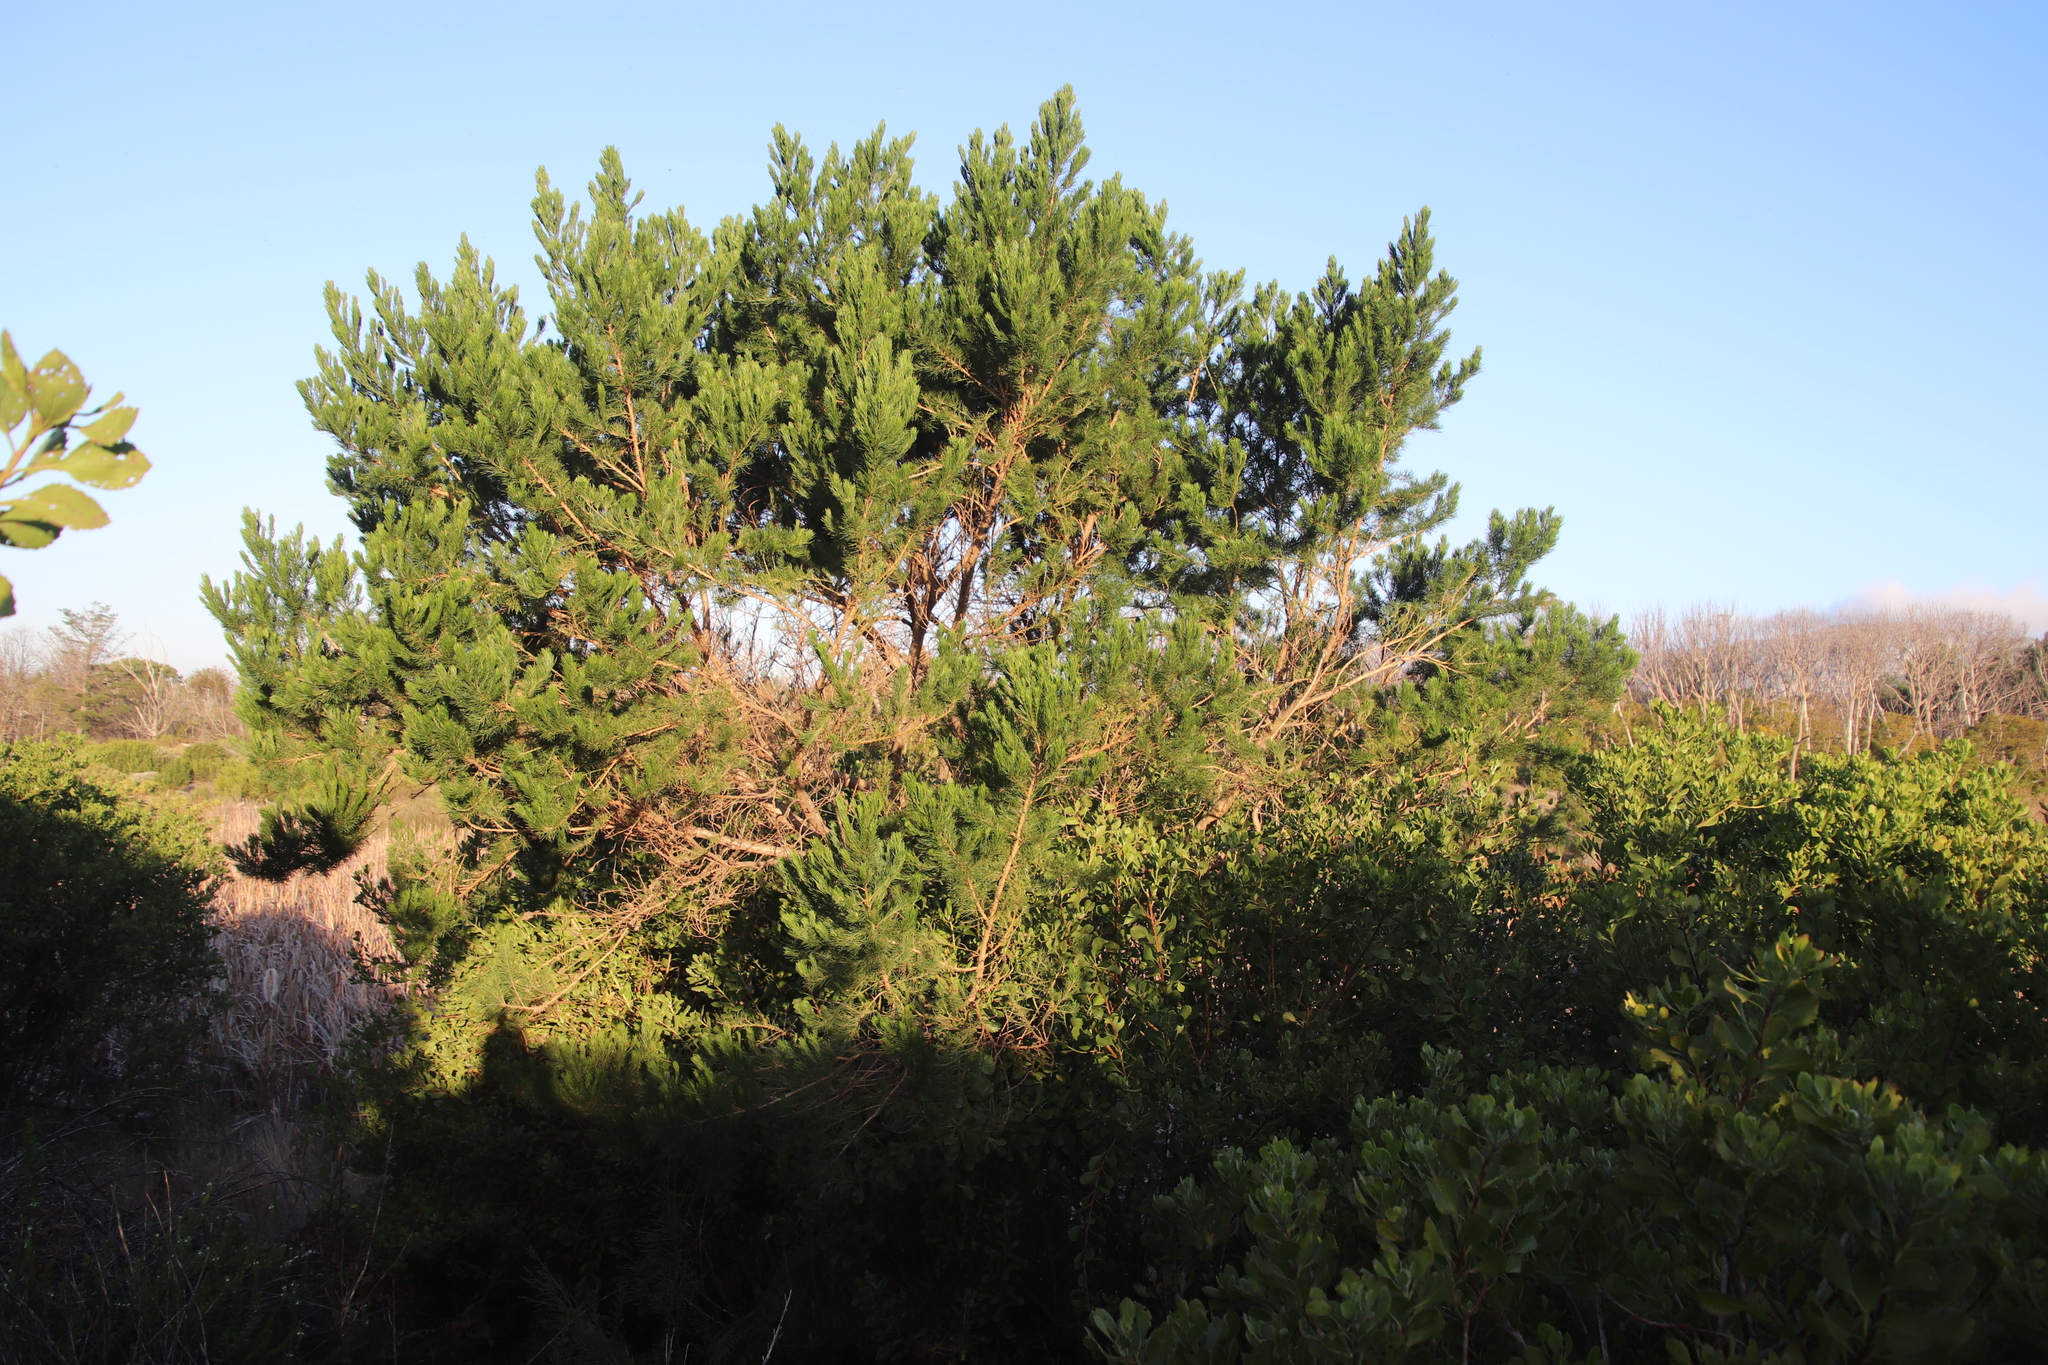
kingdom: Plantae
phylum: Tracheophyta
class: Magnoliopsida
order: Fabales
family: Fabaceae
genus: Psoralea
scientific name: Psoralea pinnata
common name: African scurfpea
